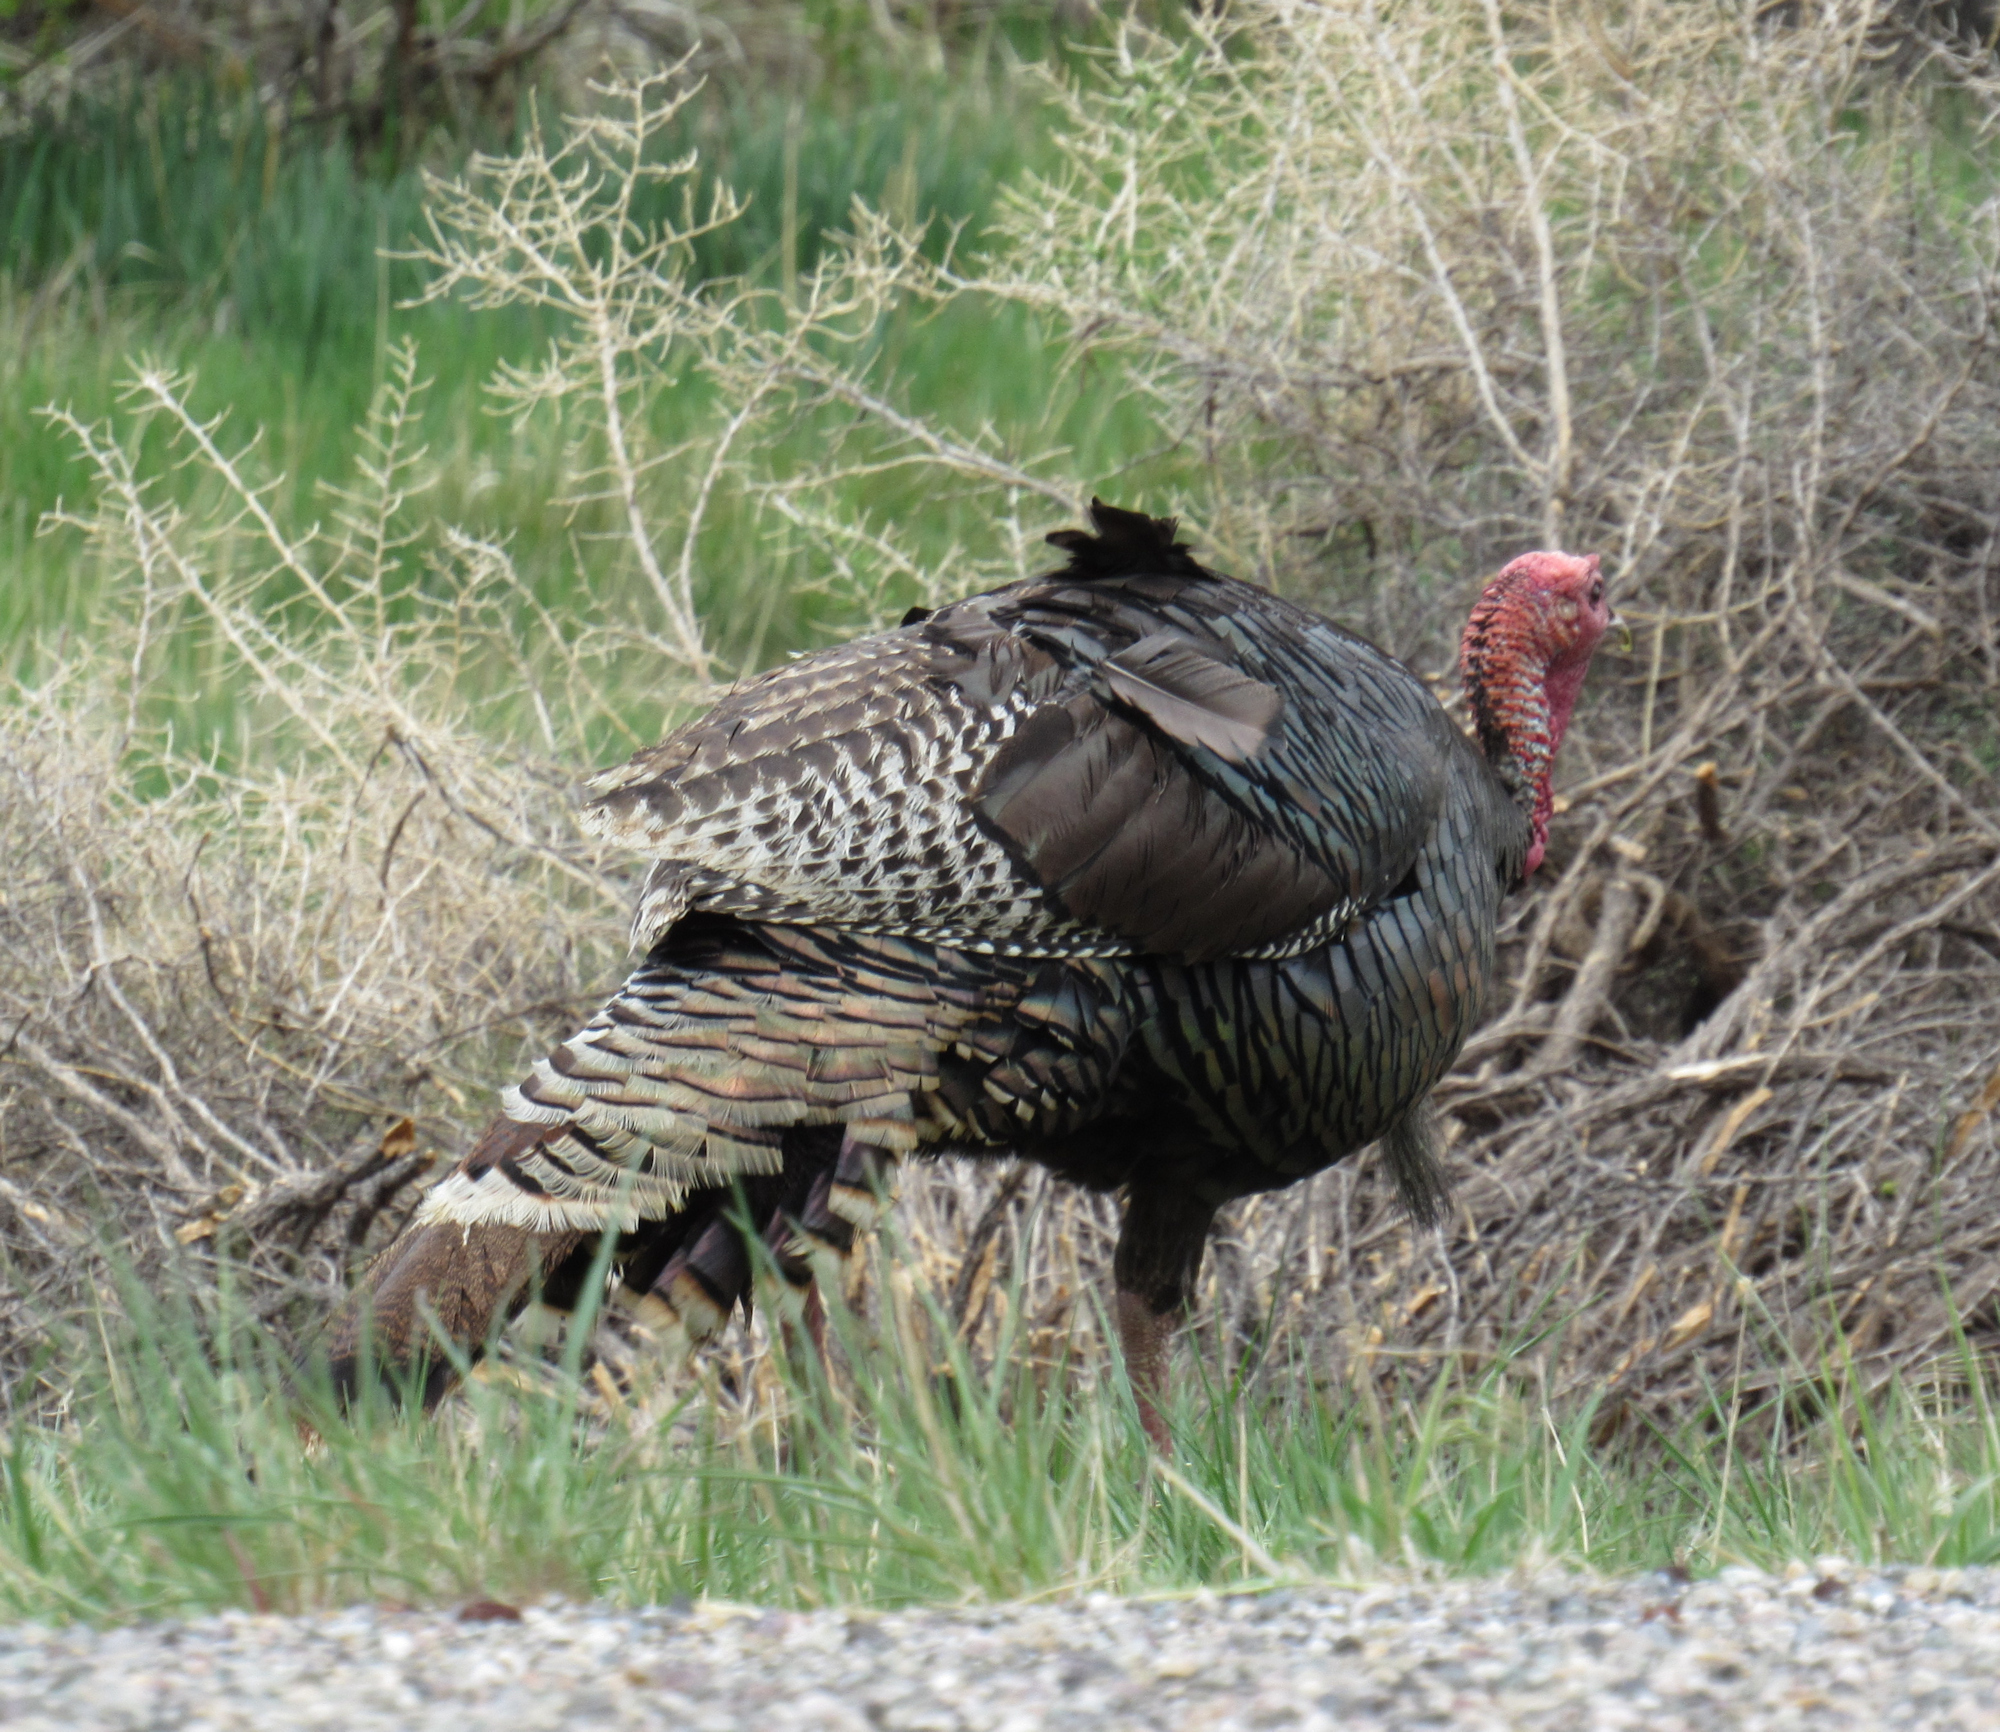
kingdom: Animalia
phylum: Chordata
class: Aves
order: Galliformes
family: Phasianidae
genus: Meleagris
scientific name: Meleagris gallopavo
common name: Wild turkey
